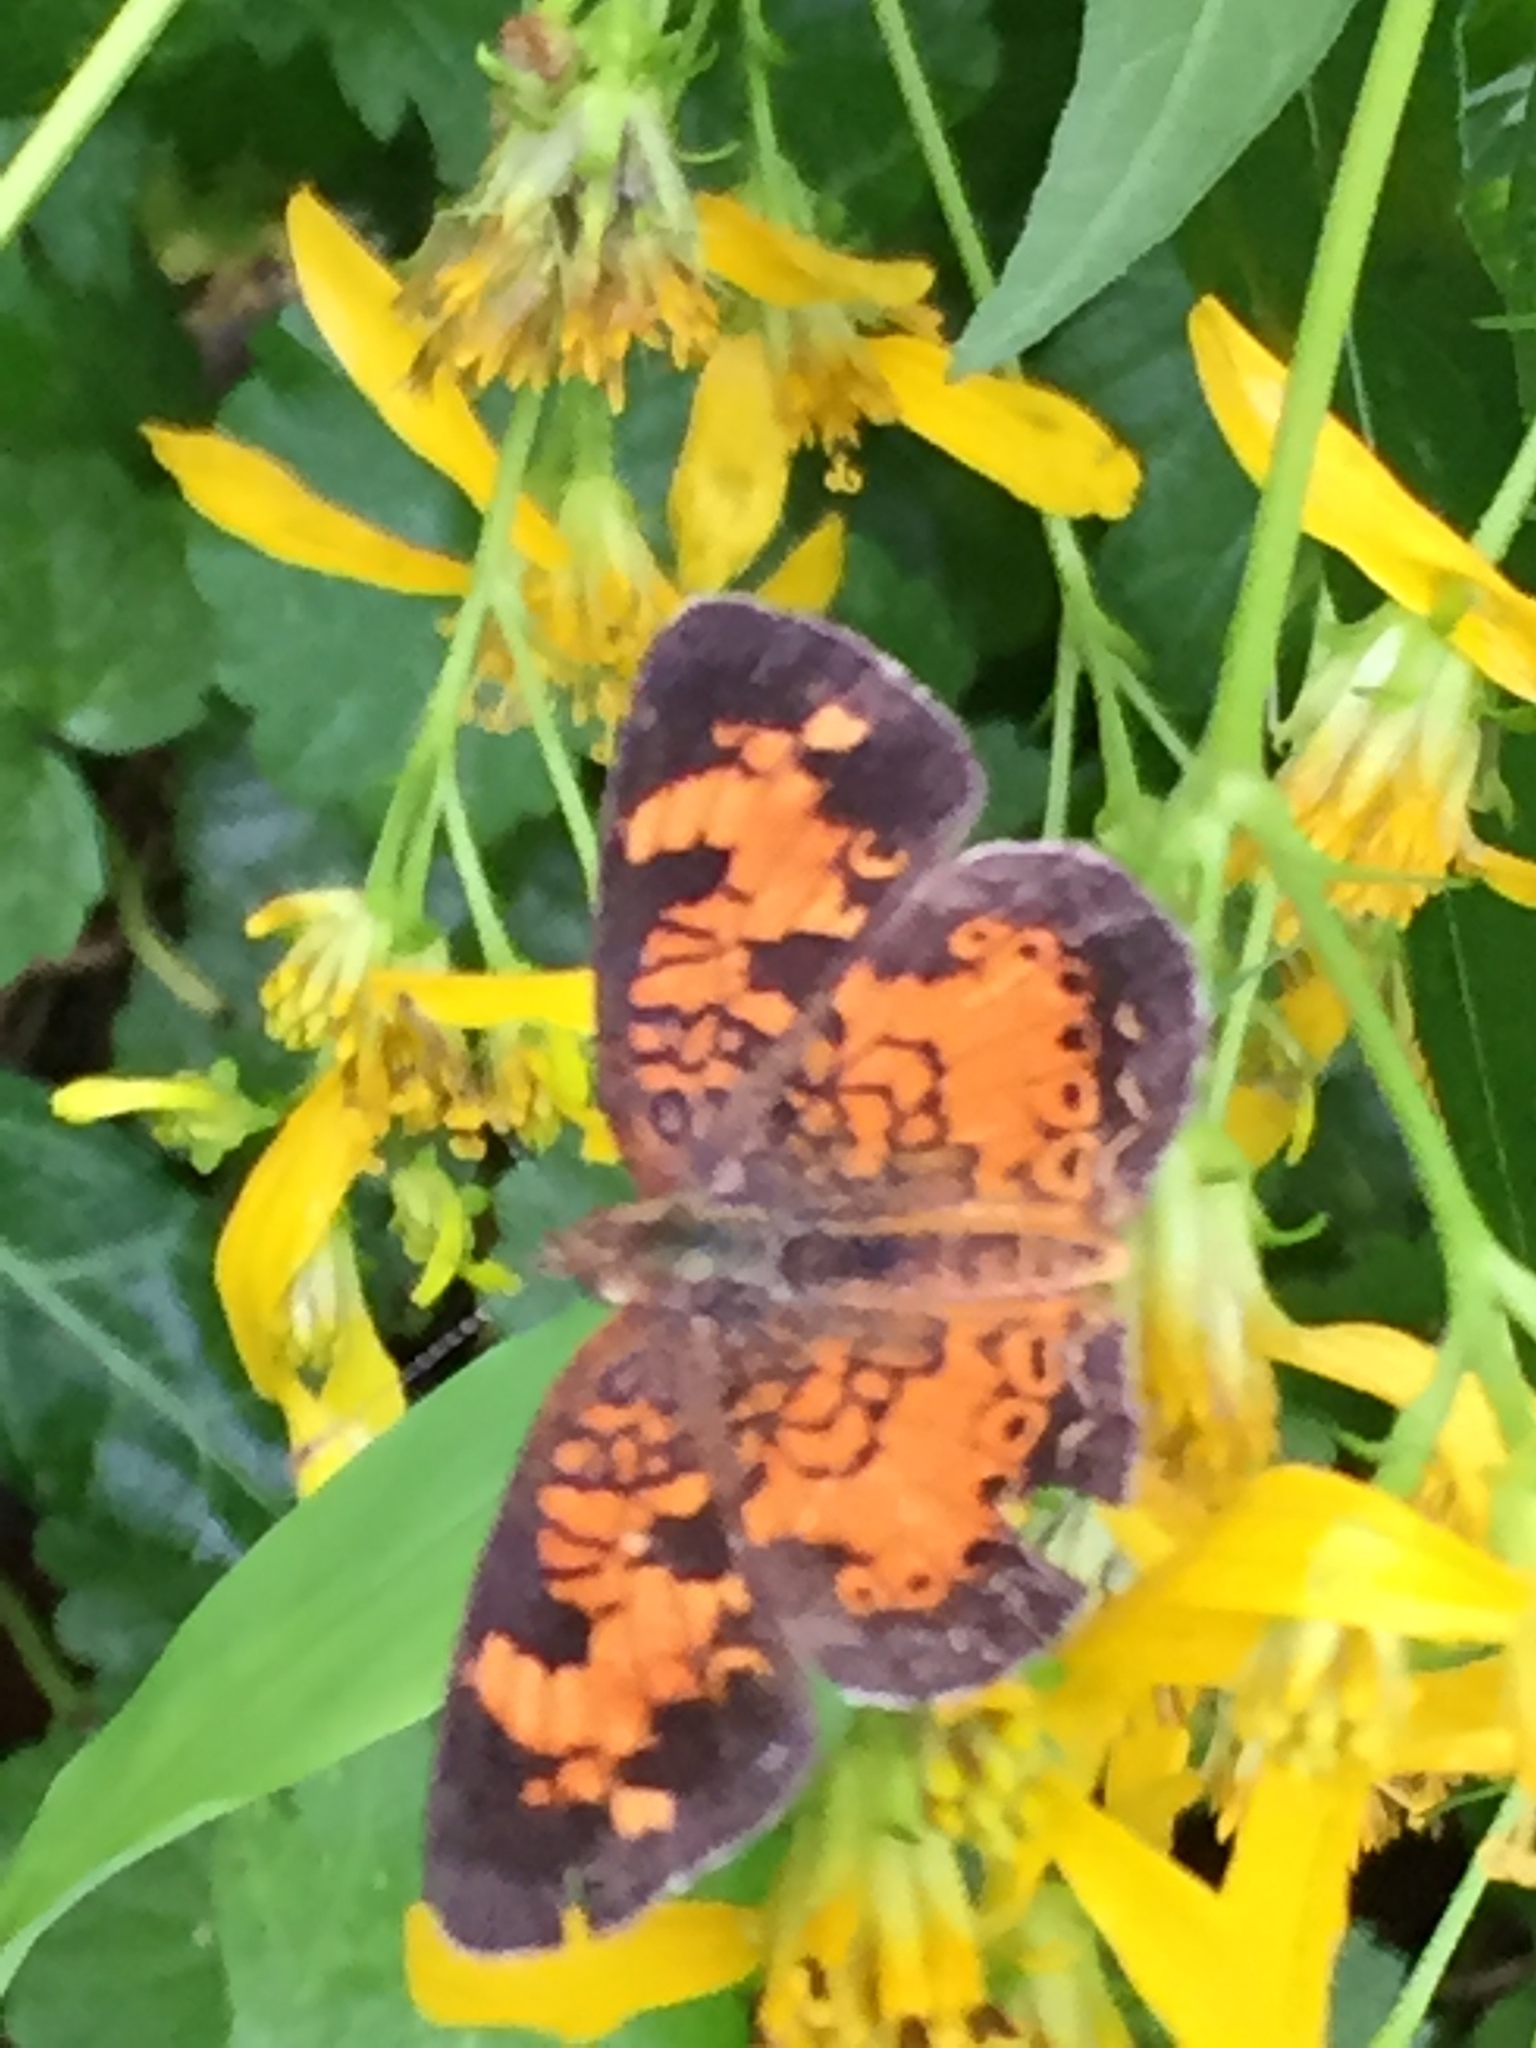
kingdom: Animalia
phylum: Arthropoda
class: Insecta
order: Lepidoptera
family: Nymphalidae
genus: Phyciodes
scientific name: Phyciodes tharos
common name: Pearl crescent
